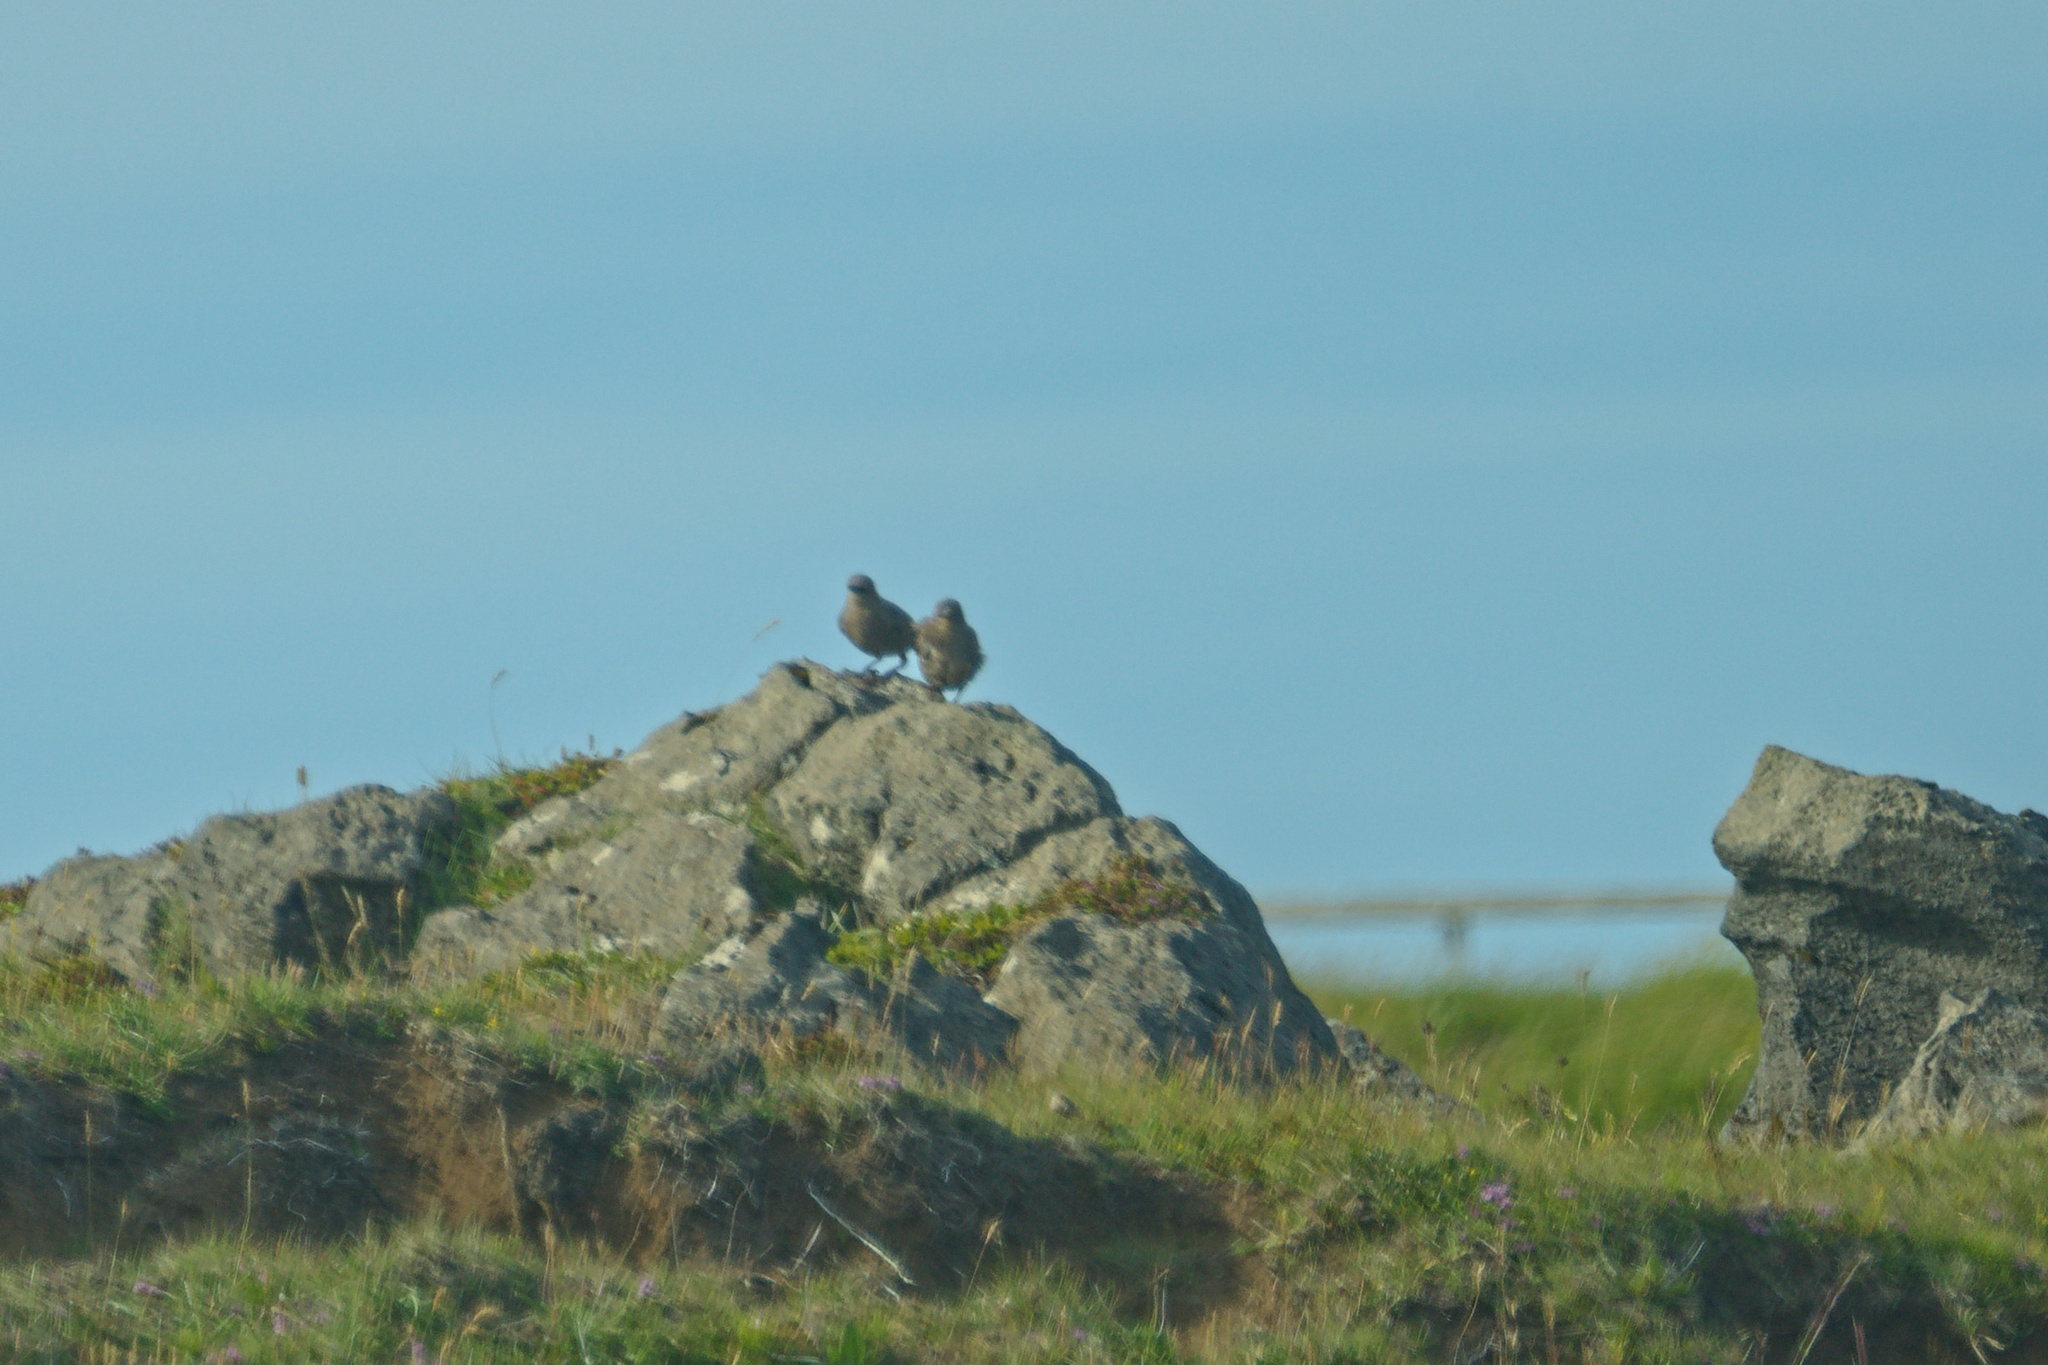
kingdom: Animalia
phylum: Chordata
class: Aves
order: Passeriformes
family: Sturnidae
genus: Sturnus
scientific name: Sturnus vulgaris
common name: Common starling
